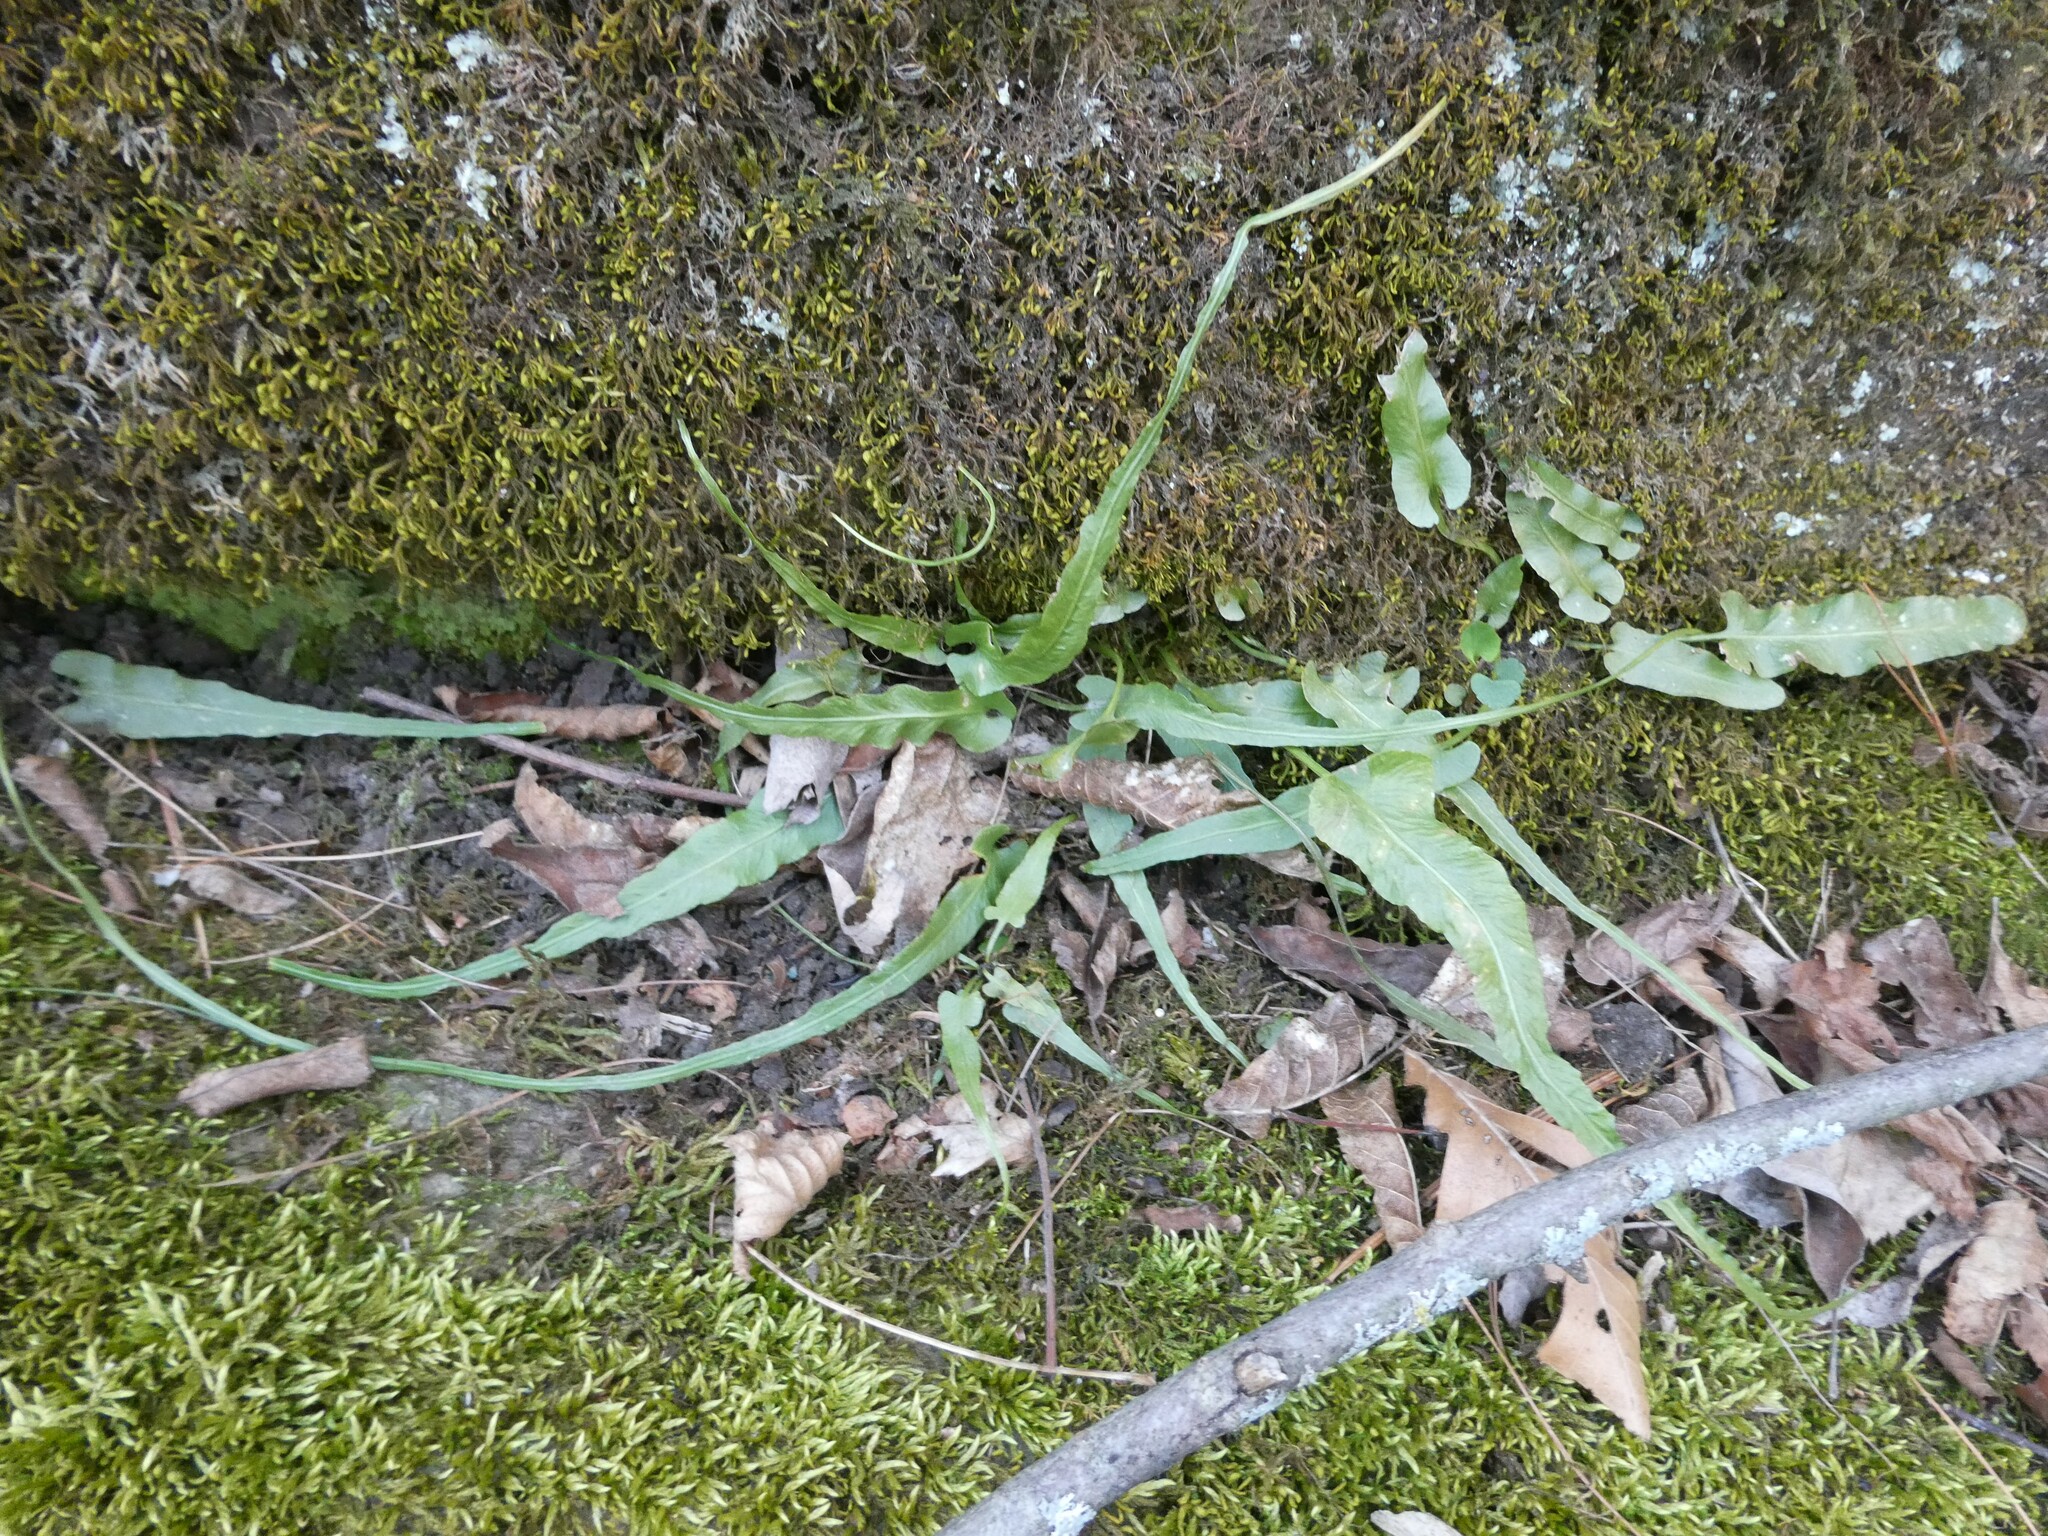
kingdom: Plantae
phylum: Tracheophyta
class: Polypodiopsida
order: Polypodiales
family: Aspleniaceae
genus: Asplenium
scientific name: Asplenium rhizophyllum
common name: Walking fern
